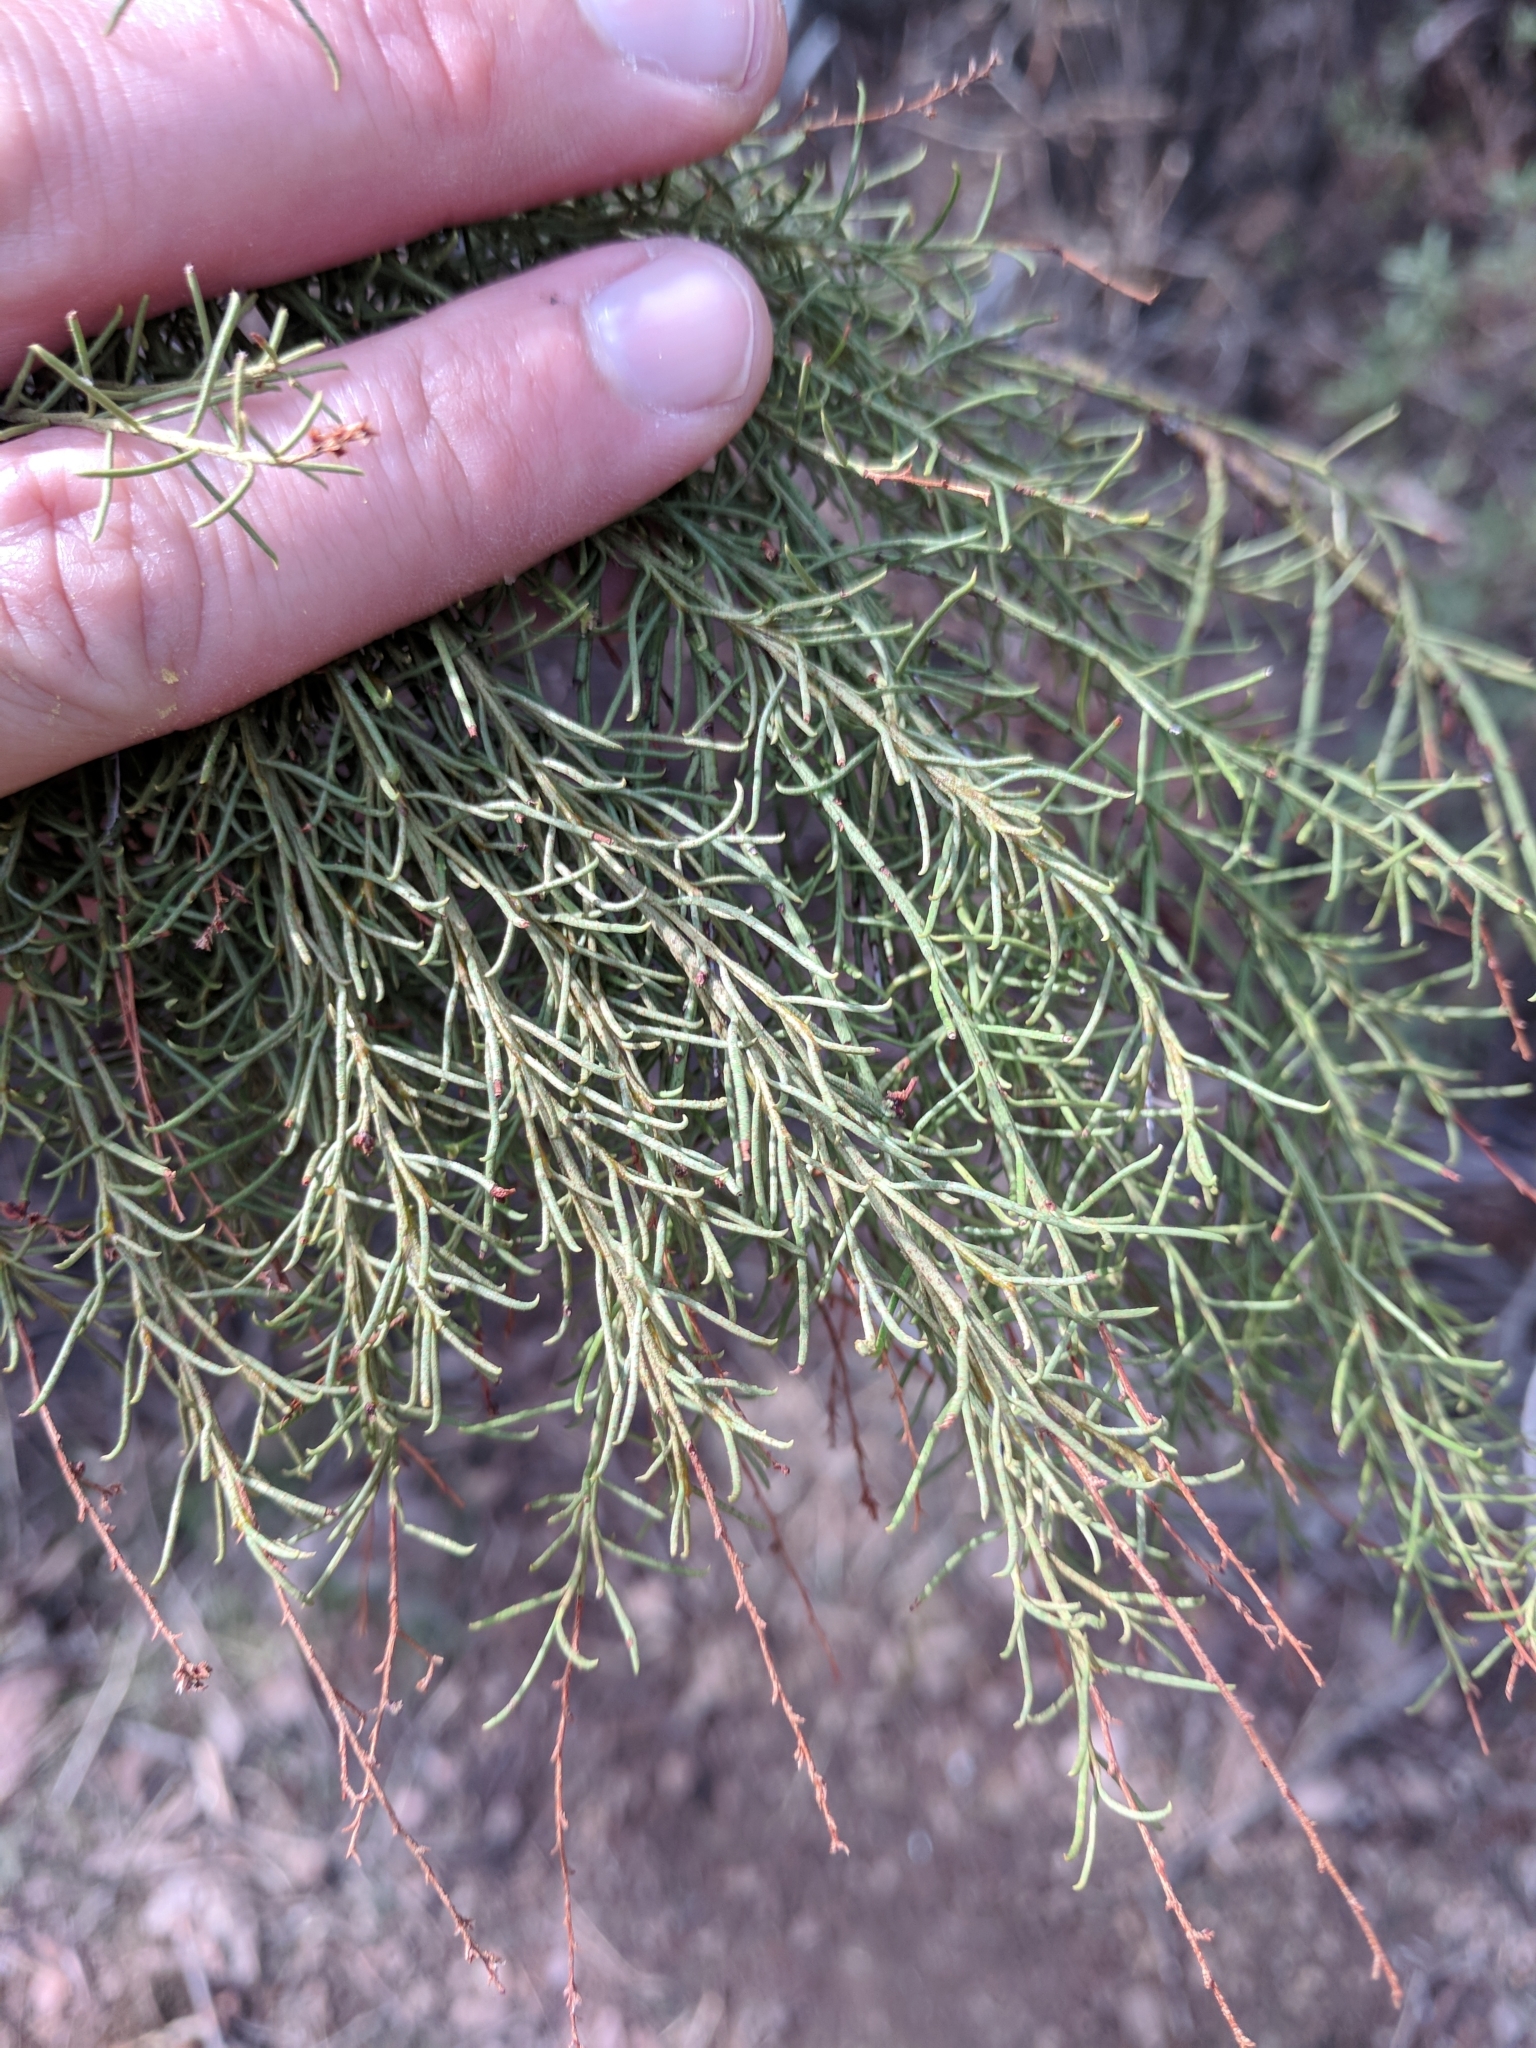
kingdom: Plantae
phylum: Tracheophyta
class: Magnoliopsida
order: Rosales
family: Rosaceae
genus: Adenostoma
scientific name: Adenostoma sparsifolium
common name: Red shank
